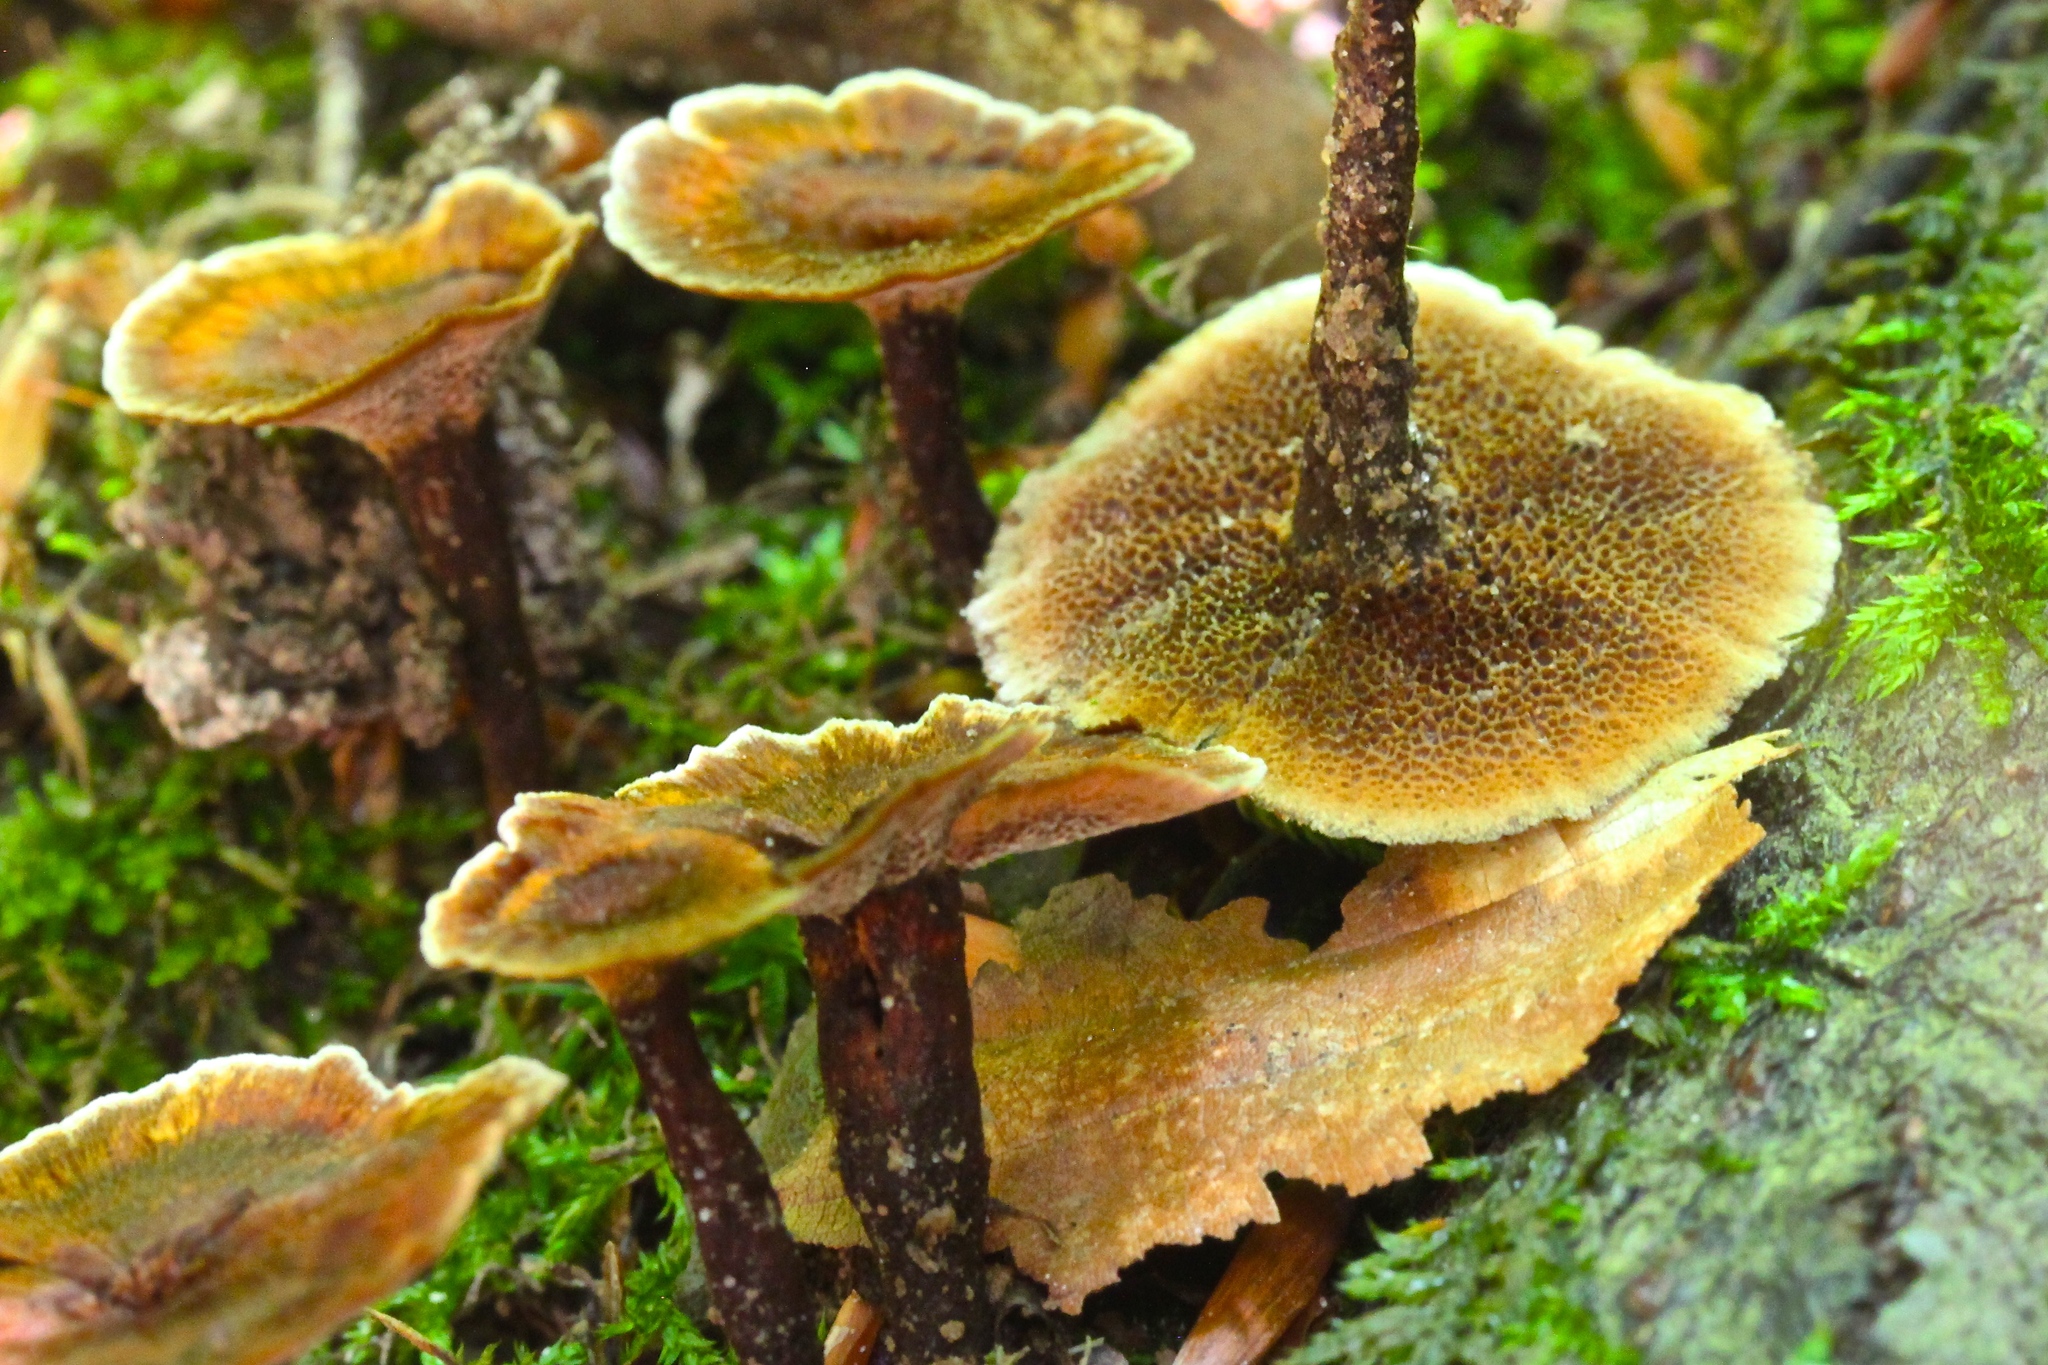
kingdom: Fungi
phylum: Basidiomycota
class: Agaricomycetes
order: Hymenochaetales
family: Hymenochaetaceae
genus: Coltricia
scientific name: Coltricia cinnamomea
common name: Shiny cinnamon polypore
